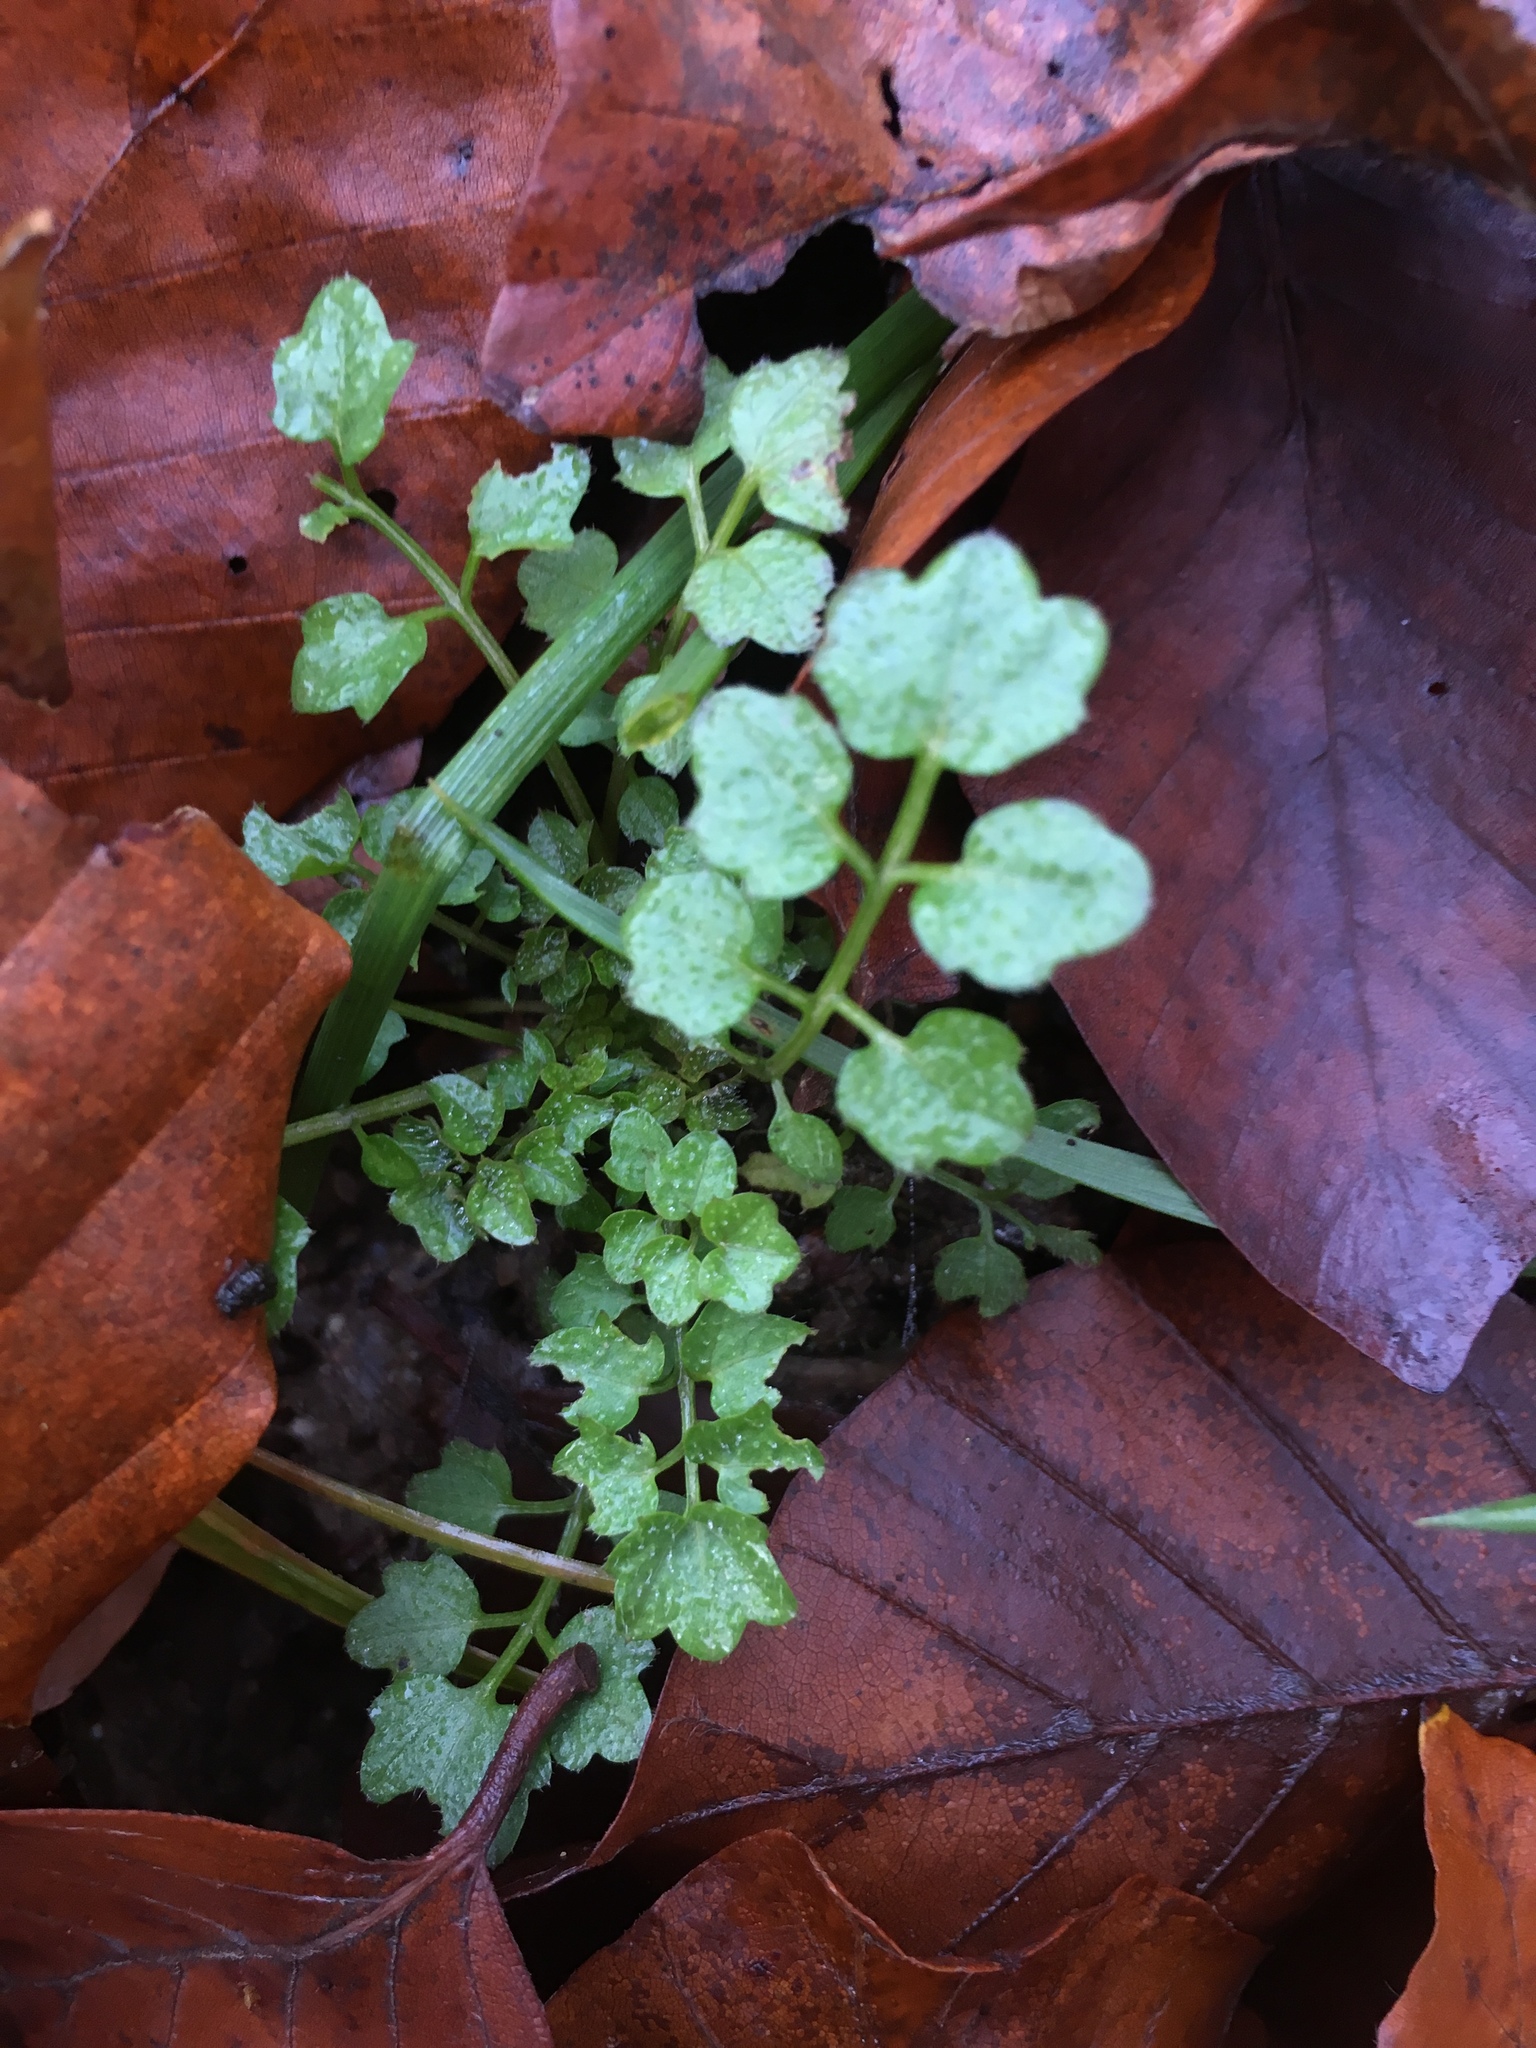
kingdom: Plantae
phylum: Tracheophyta
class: Magnoliopsida
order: Brassicales
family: Brassicaceae
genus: Cardamine
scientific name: Cardamine flexuosa
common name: Woodland bittercress
